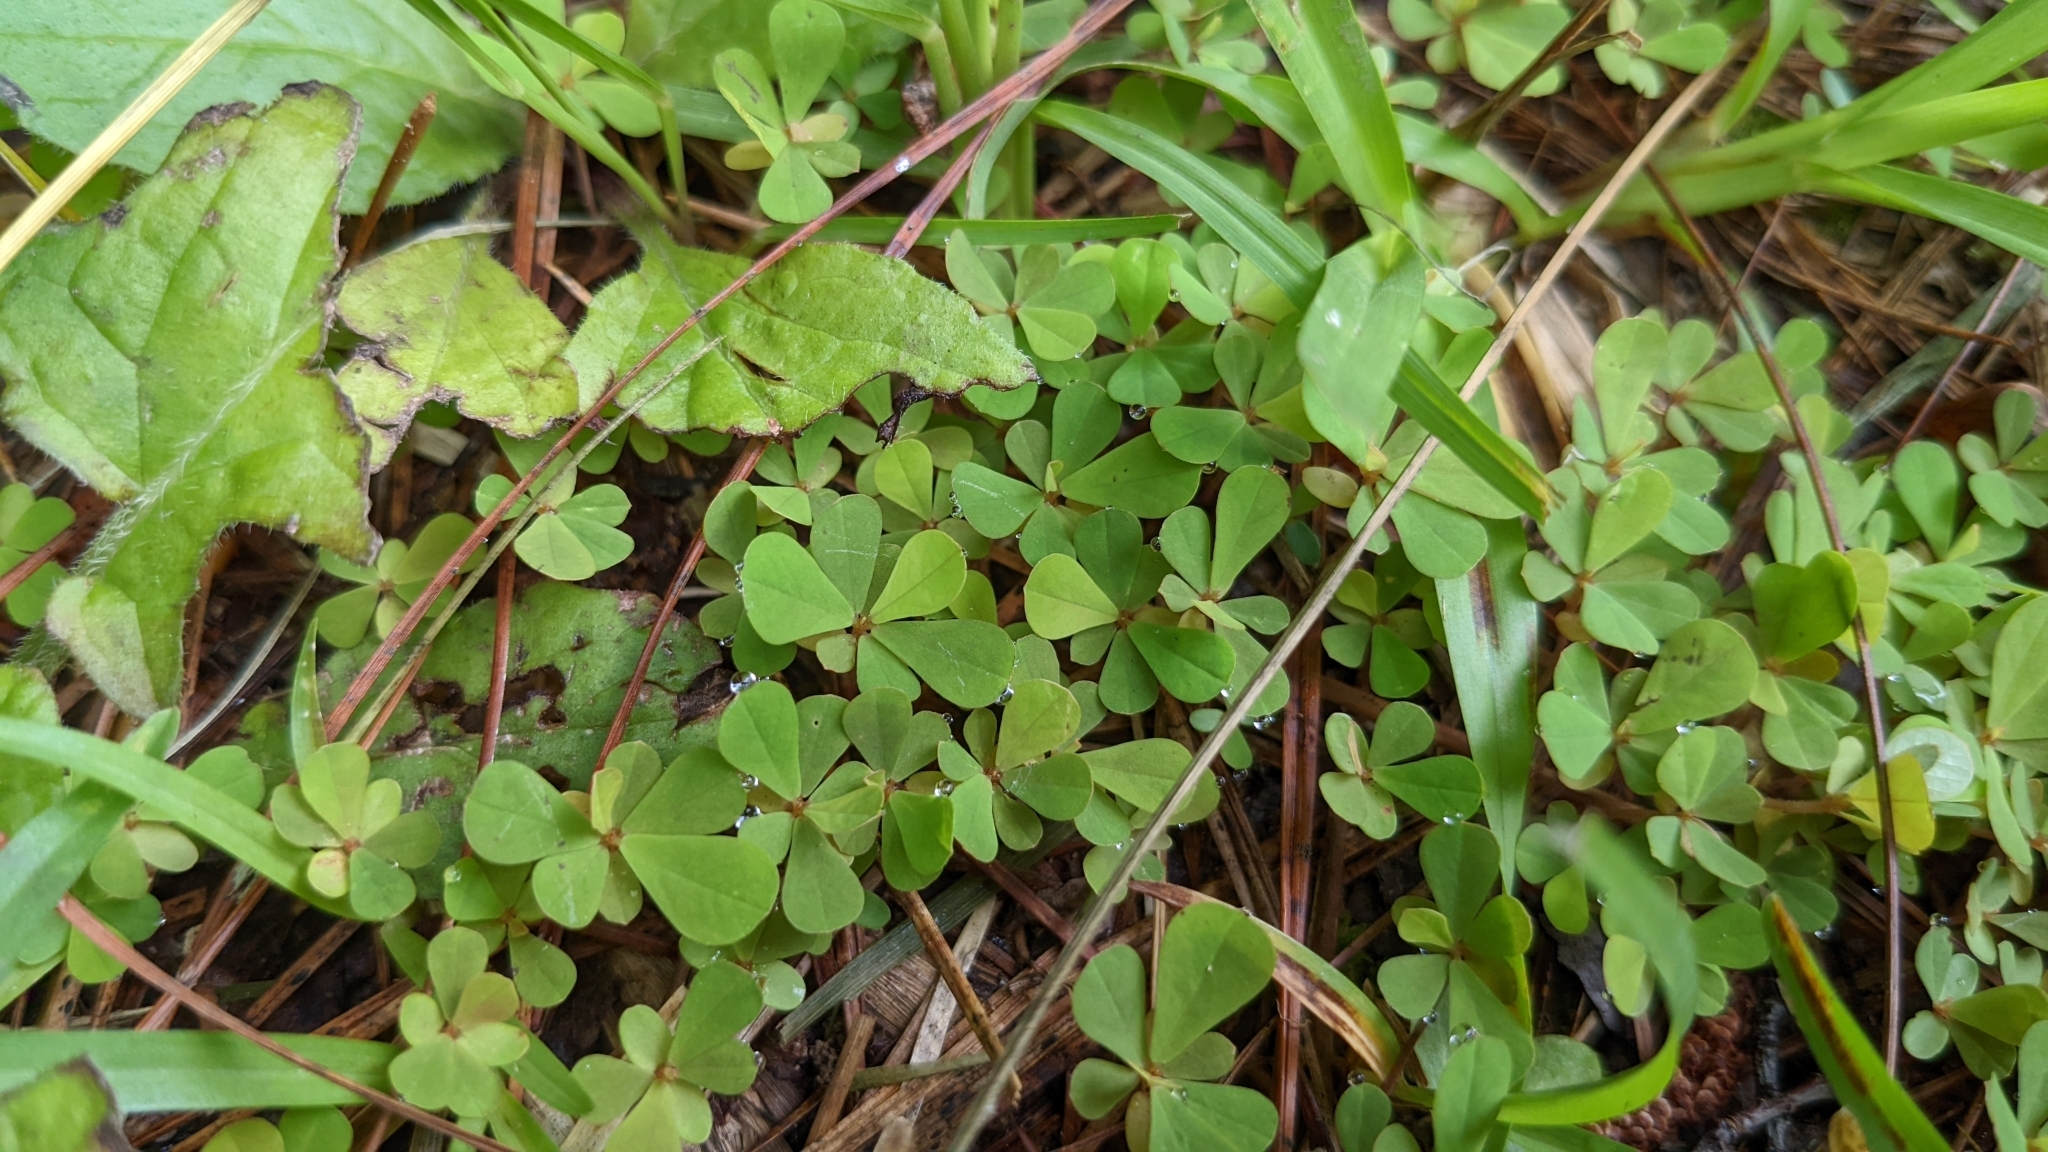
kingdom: Plantae
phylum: Tracheophyta
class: Magnoliopsida
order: Malpighiales
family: Phyllanthaceae
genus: Phyllanthus
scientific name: Phyllanthus urinaria
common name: Chamber bitter
